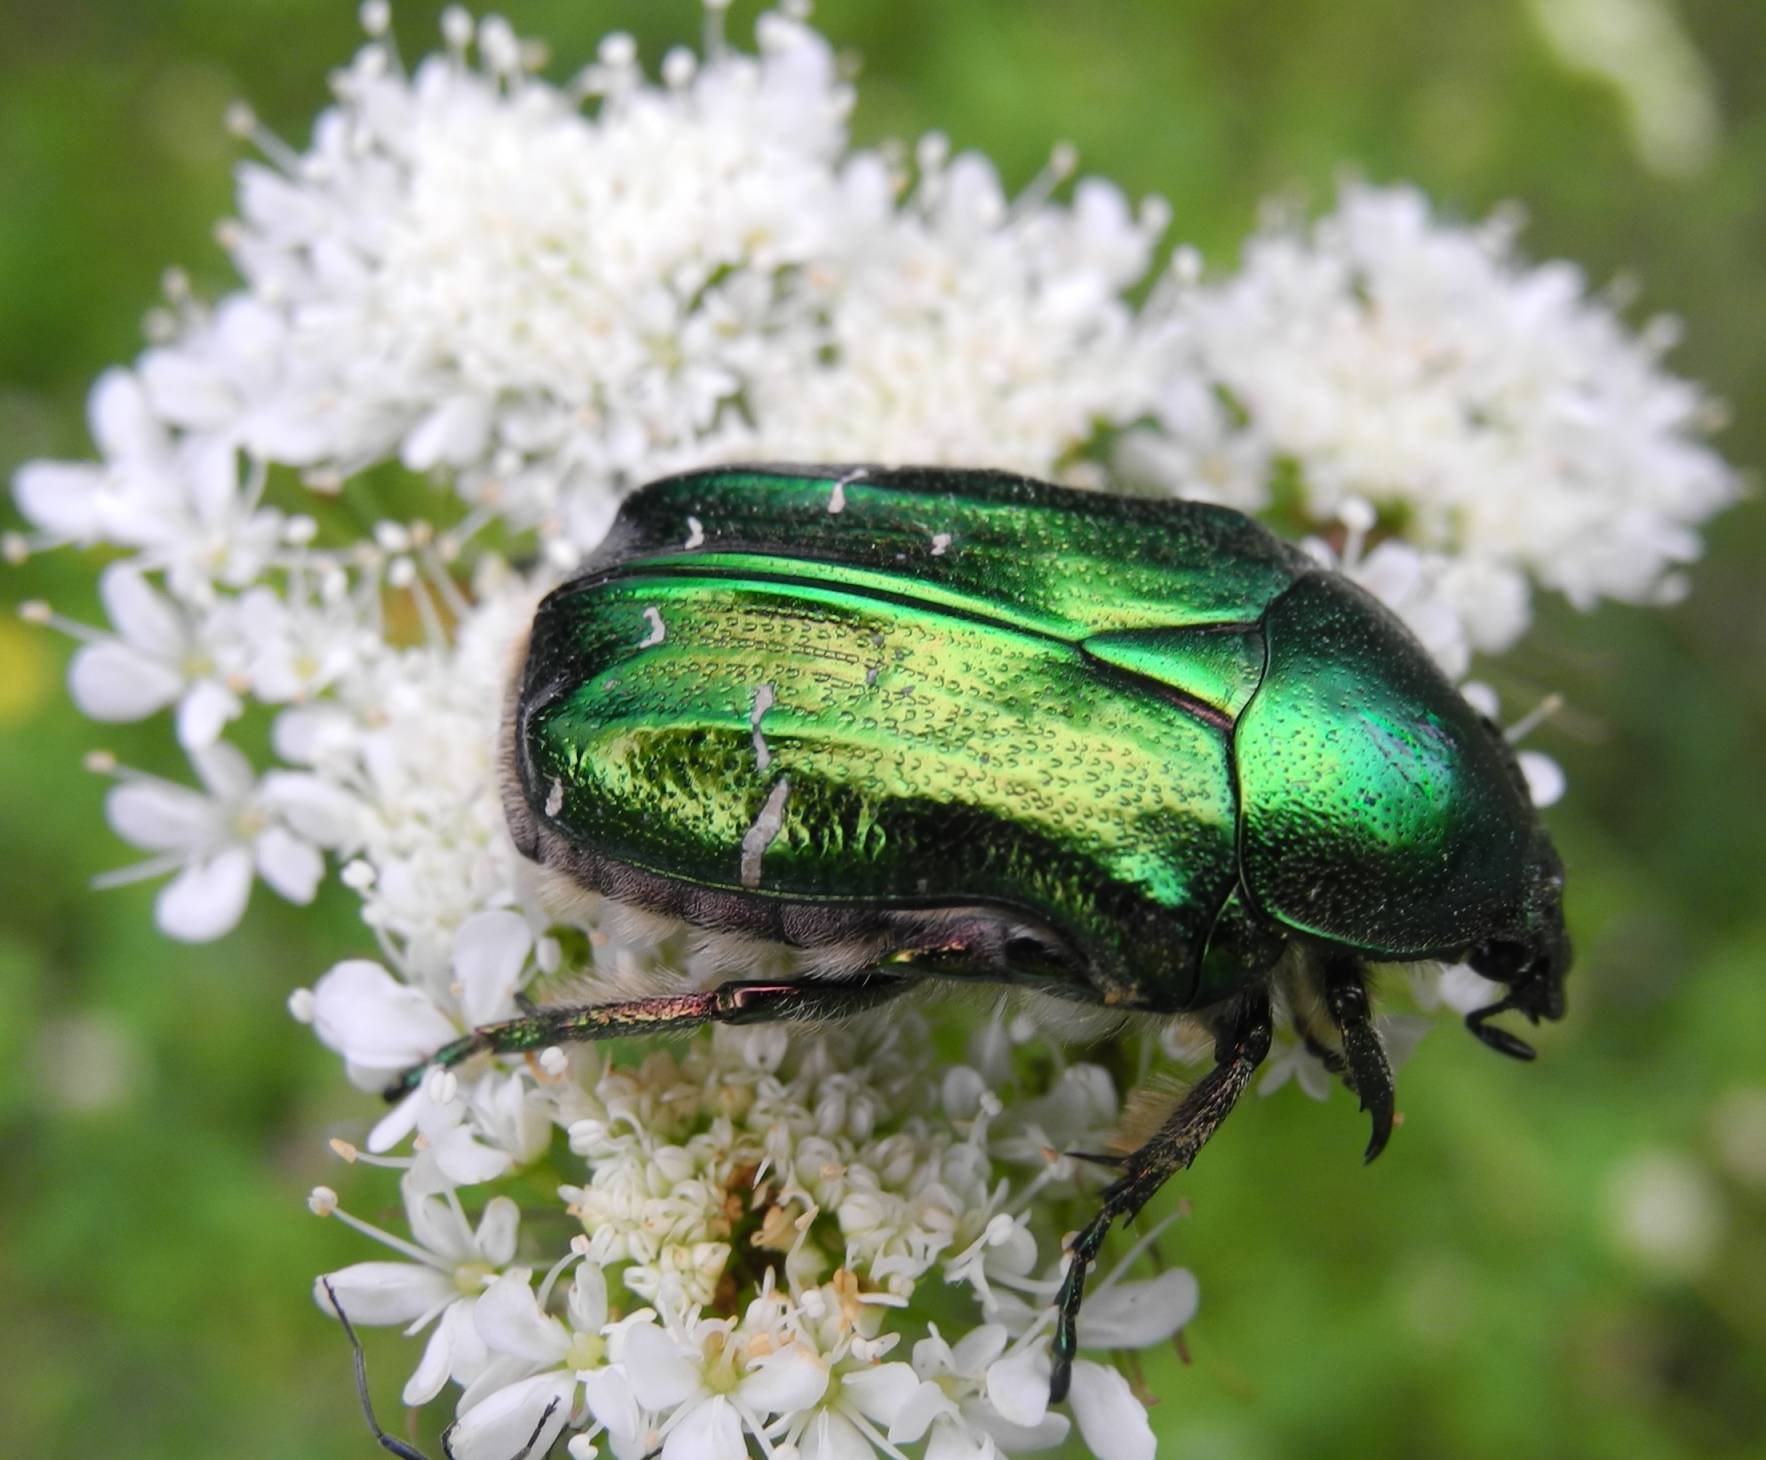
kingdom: Animalia
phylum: Arthropoda
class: Insecta
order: Coleoptera
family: Scarabaeidae
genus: Cetonia
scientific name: Cetonia aurata
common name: Rose chafer
